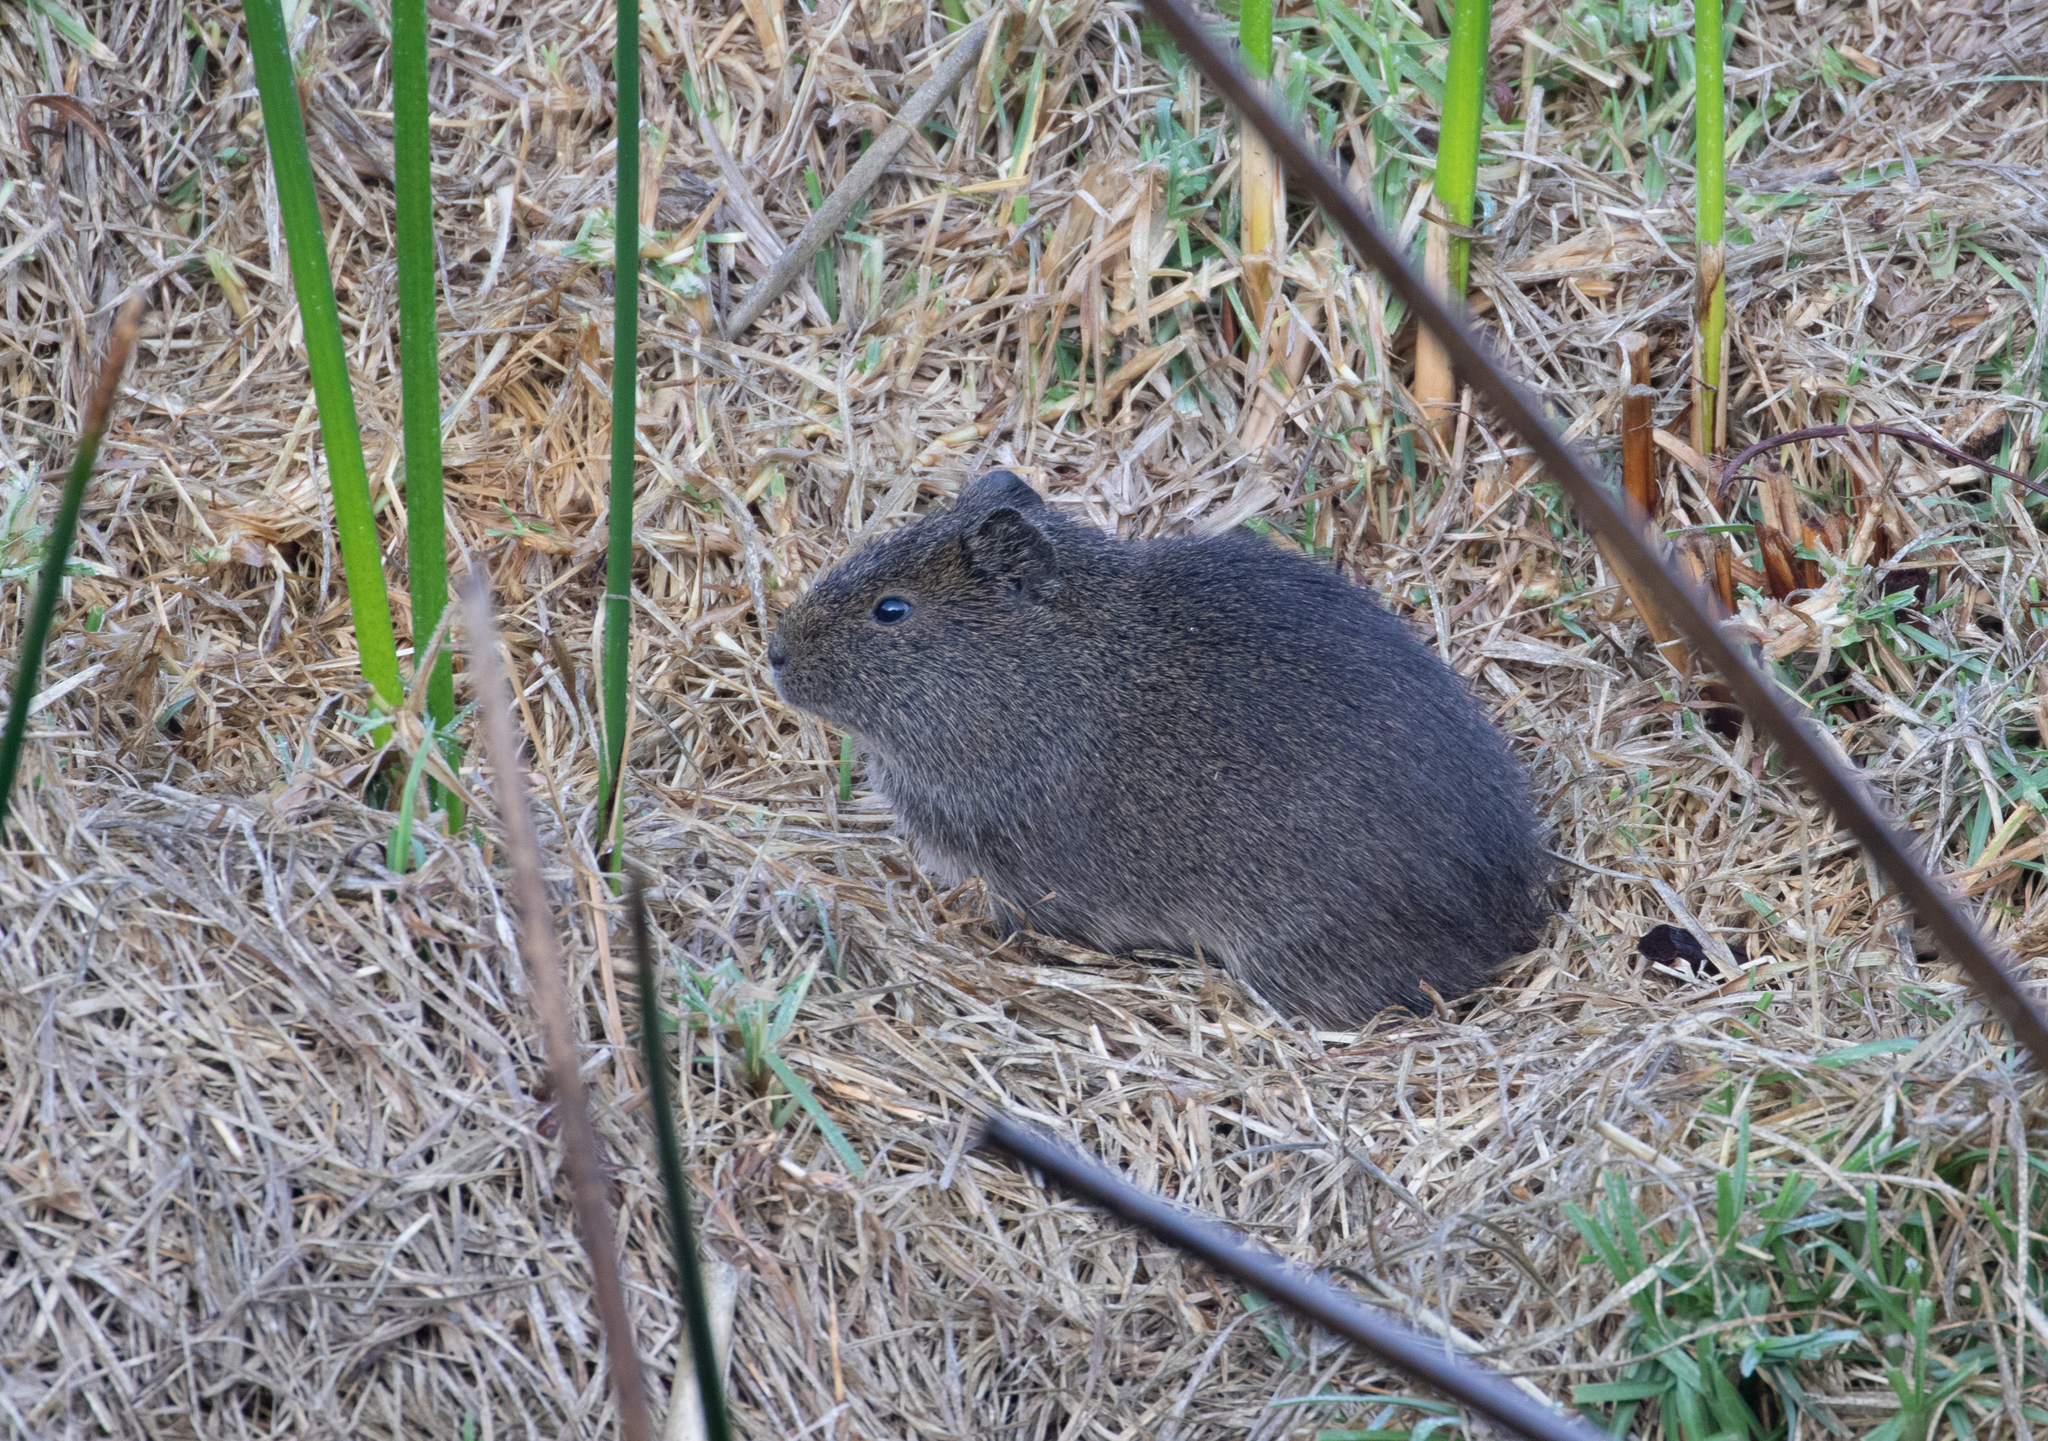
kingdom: Animalia
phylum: Chordata
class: Mammalia
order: Rodentia
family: Caviidae
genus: Cavia
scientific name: Cavia aperea
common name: Brazilian guinea pig
